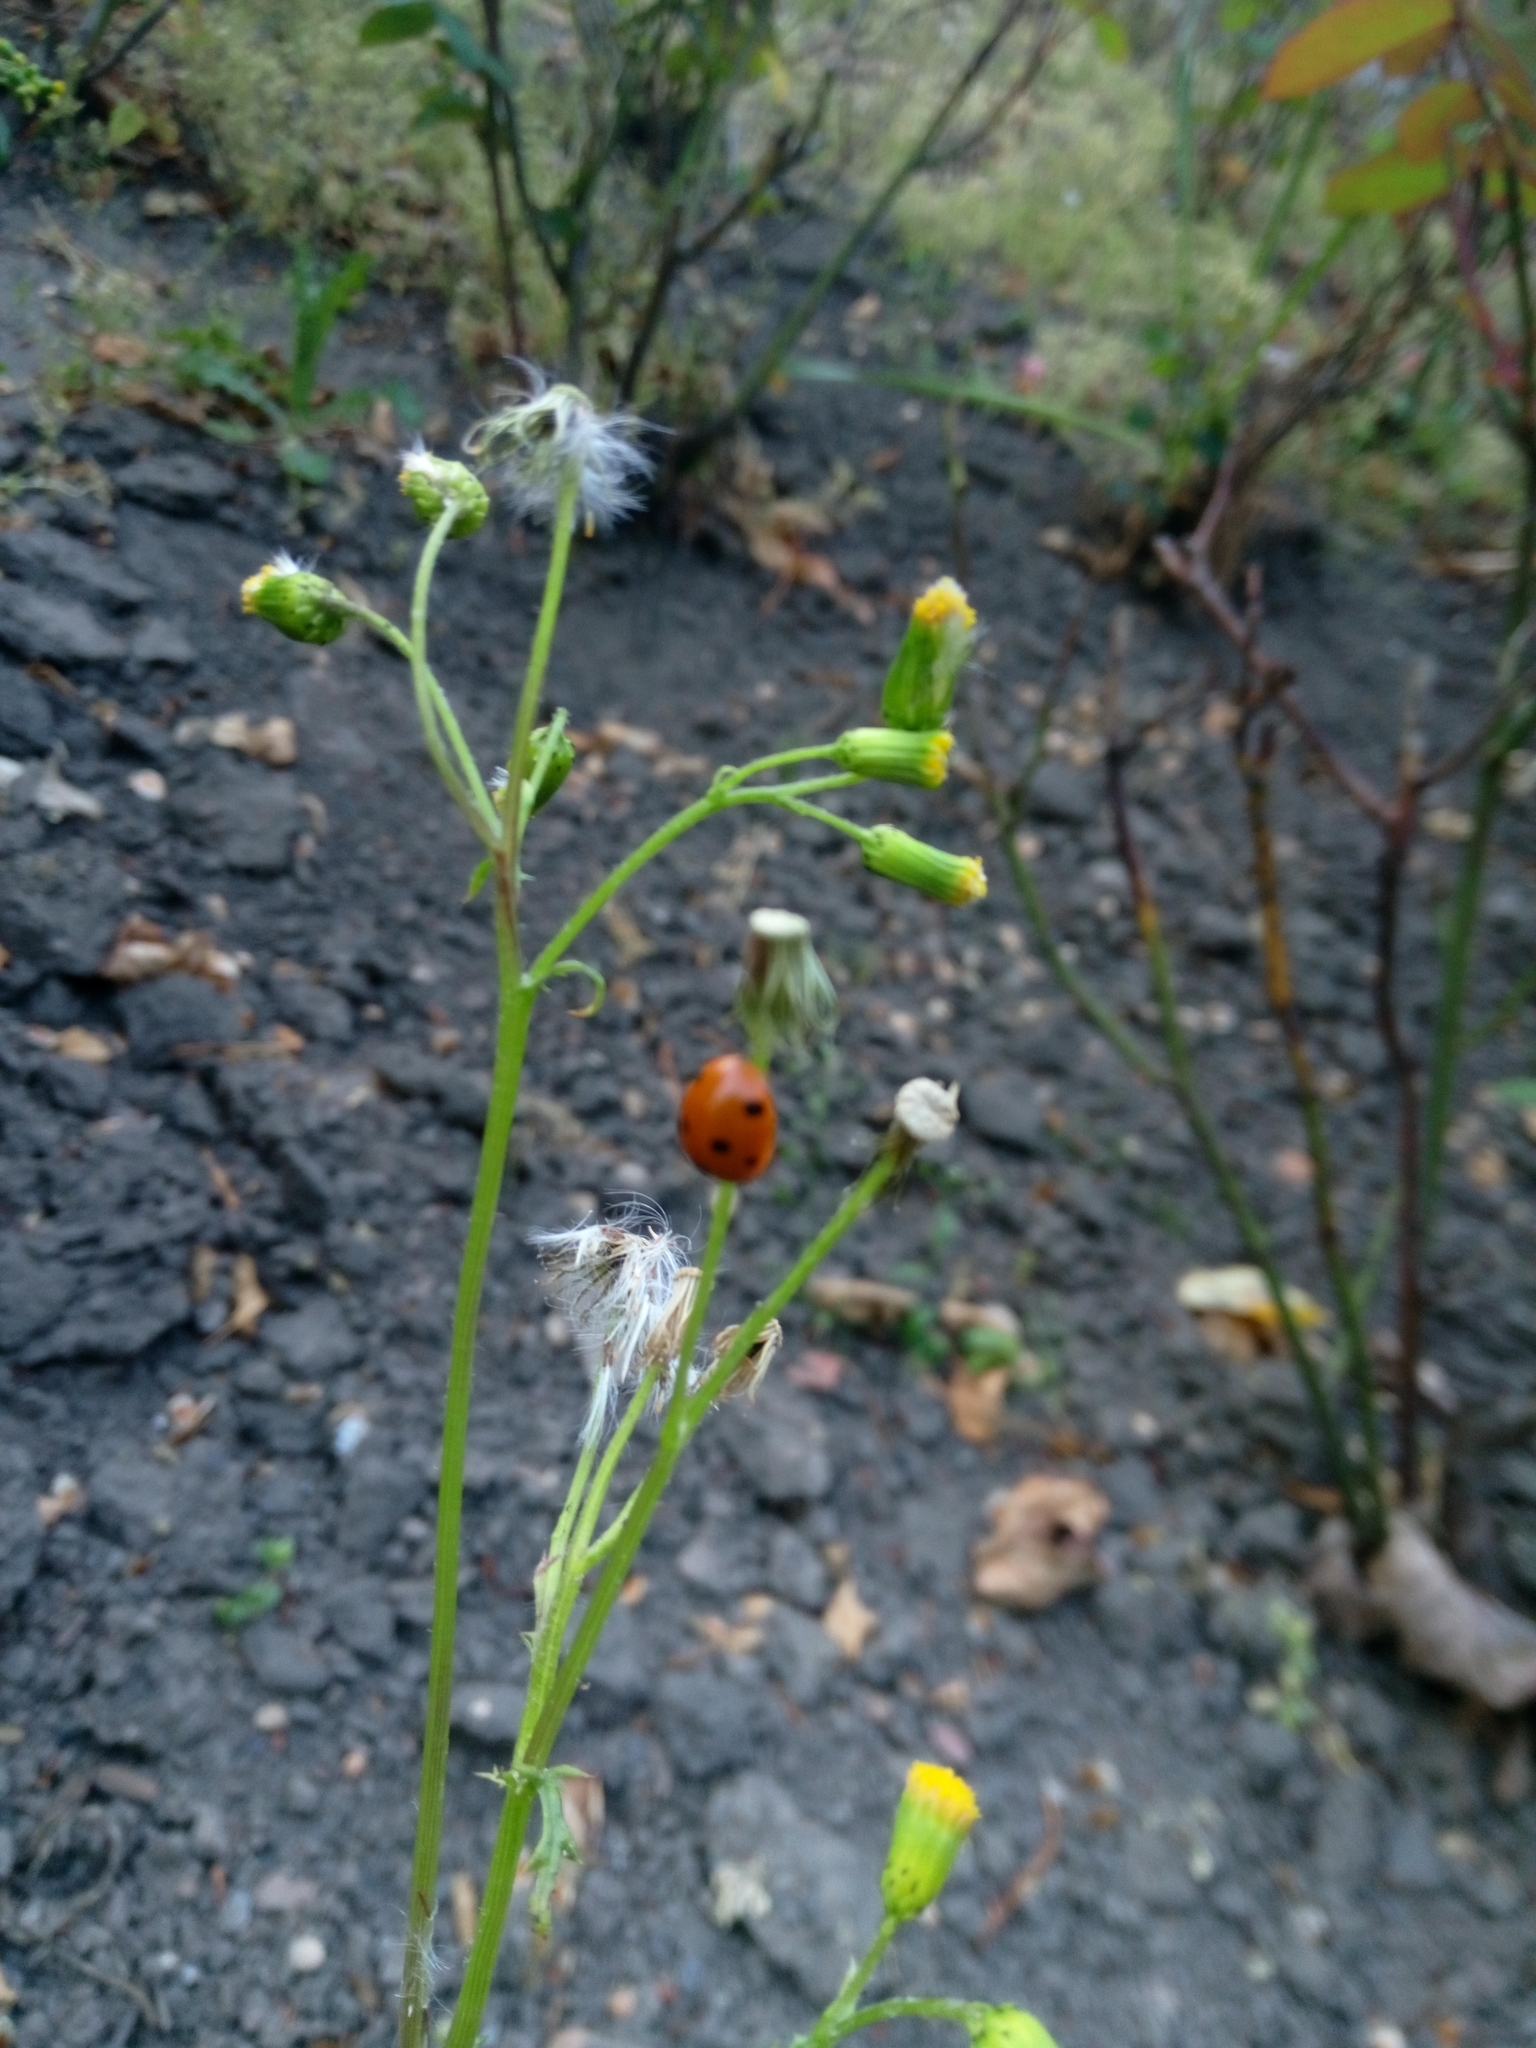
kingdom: Animalia
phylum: Arthropoda
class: Insecta
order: Coleoptera
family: Coccinellidae
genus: Coccinella
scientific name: Coccinella septempunctata
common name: Sevenspotted lady beetle
